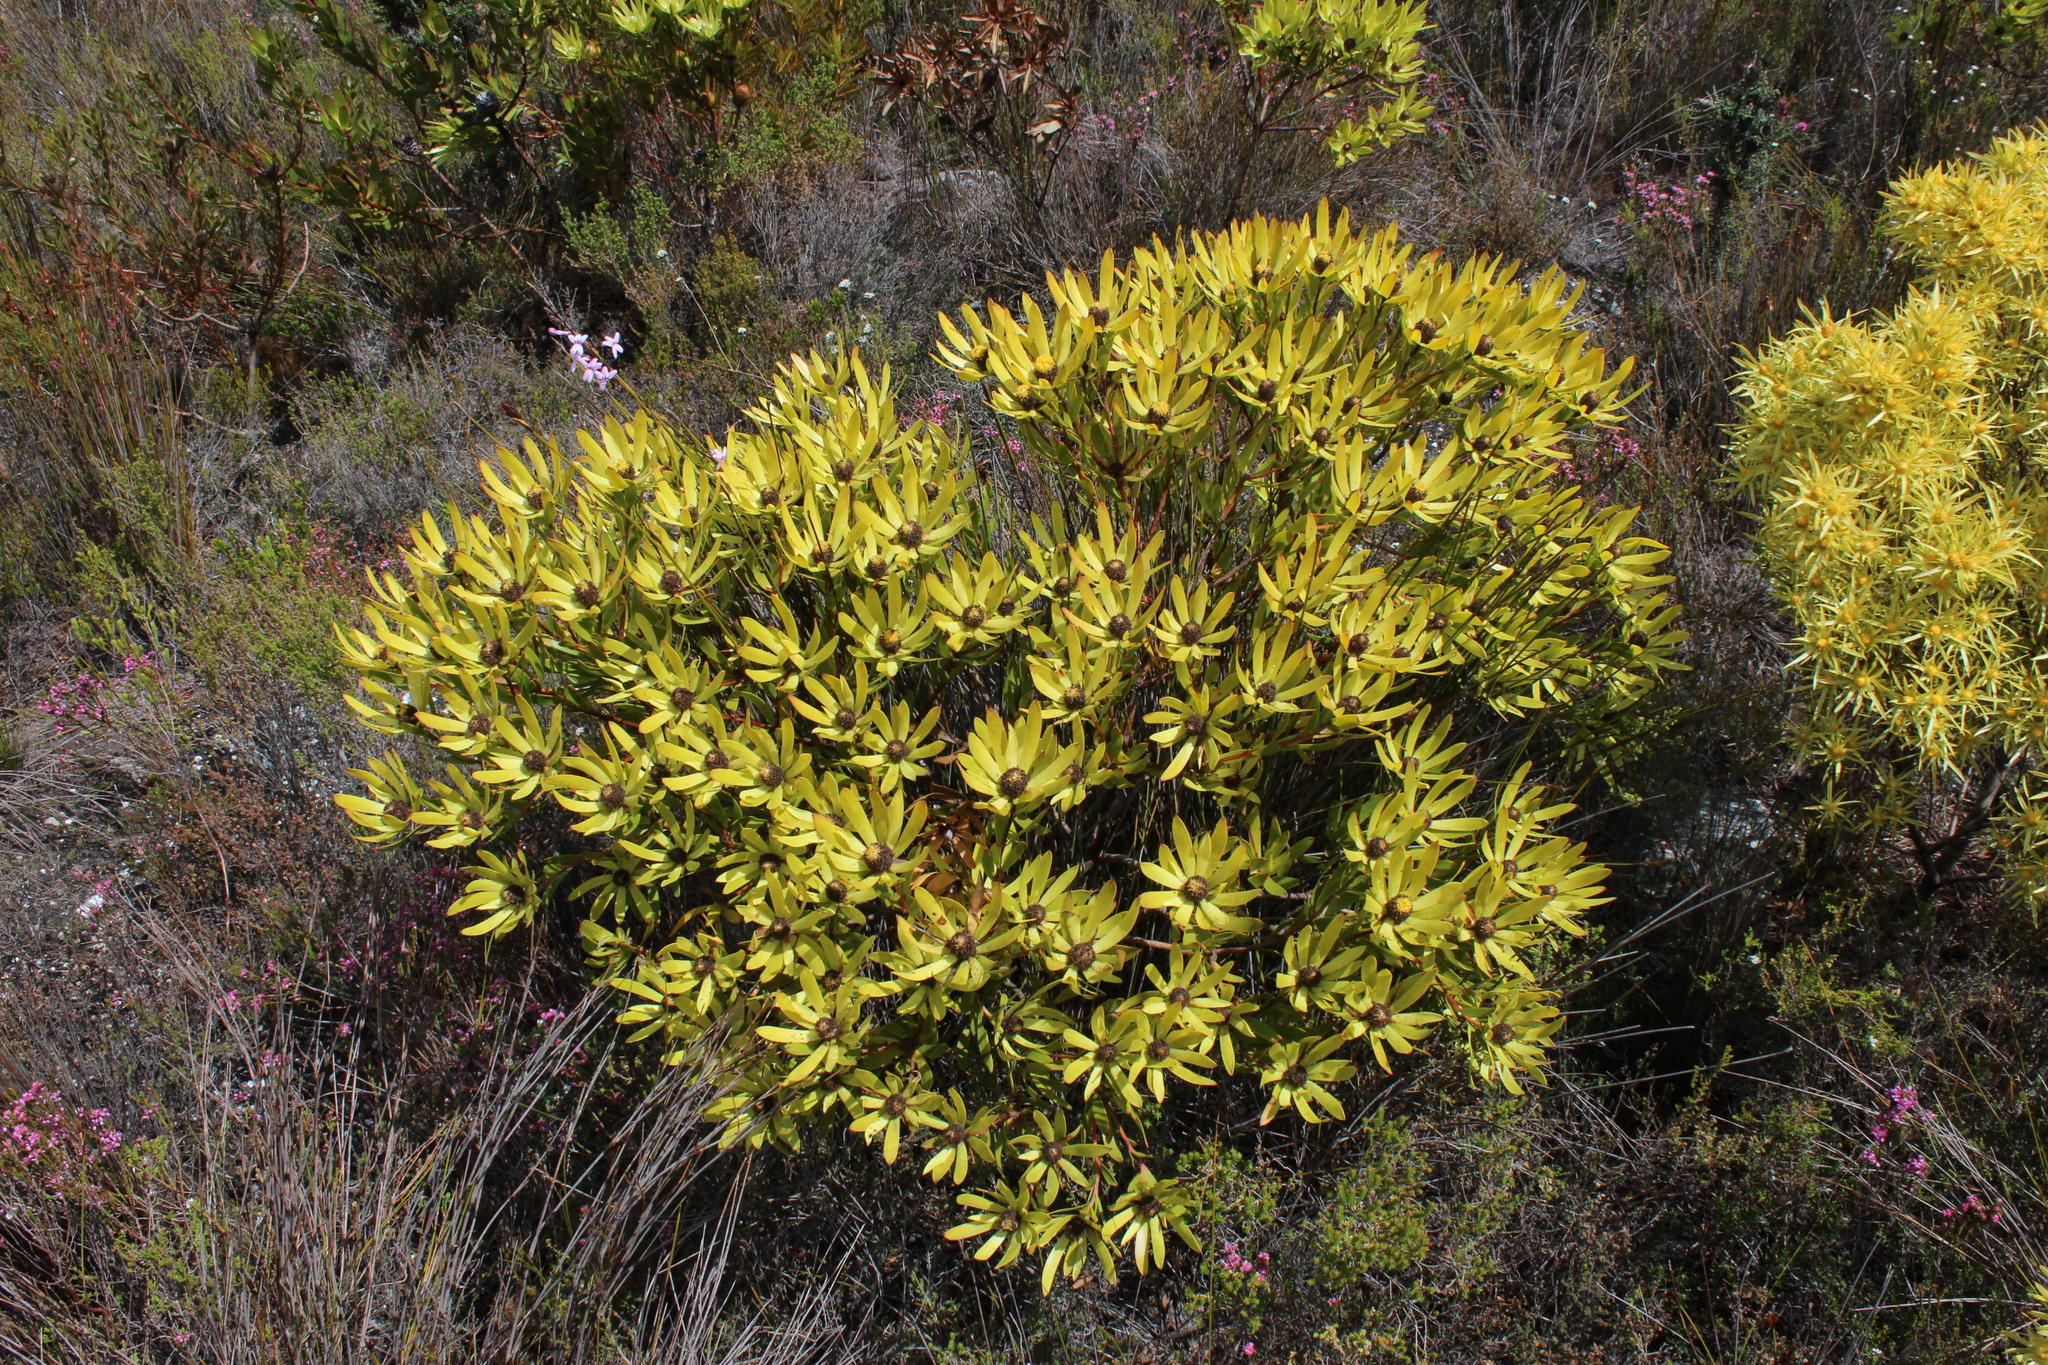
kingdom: Plantae
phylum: Tracheophyta
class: Magnoliopsida
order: Proteales
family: Proteaceae
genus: Leucadendron
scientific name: Leucadendron gandogeri
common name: Broad-leaf conebush
